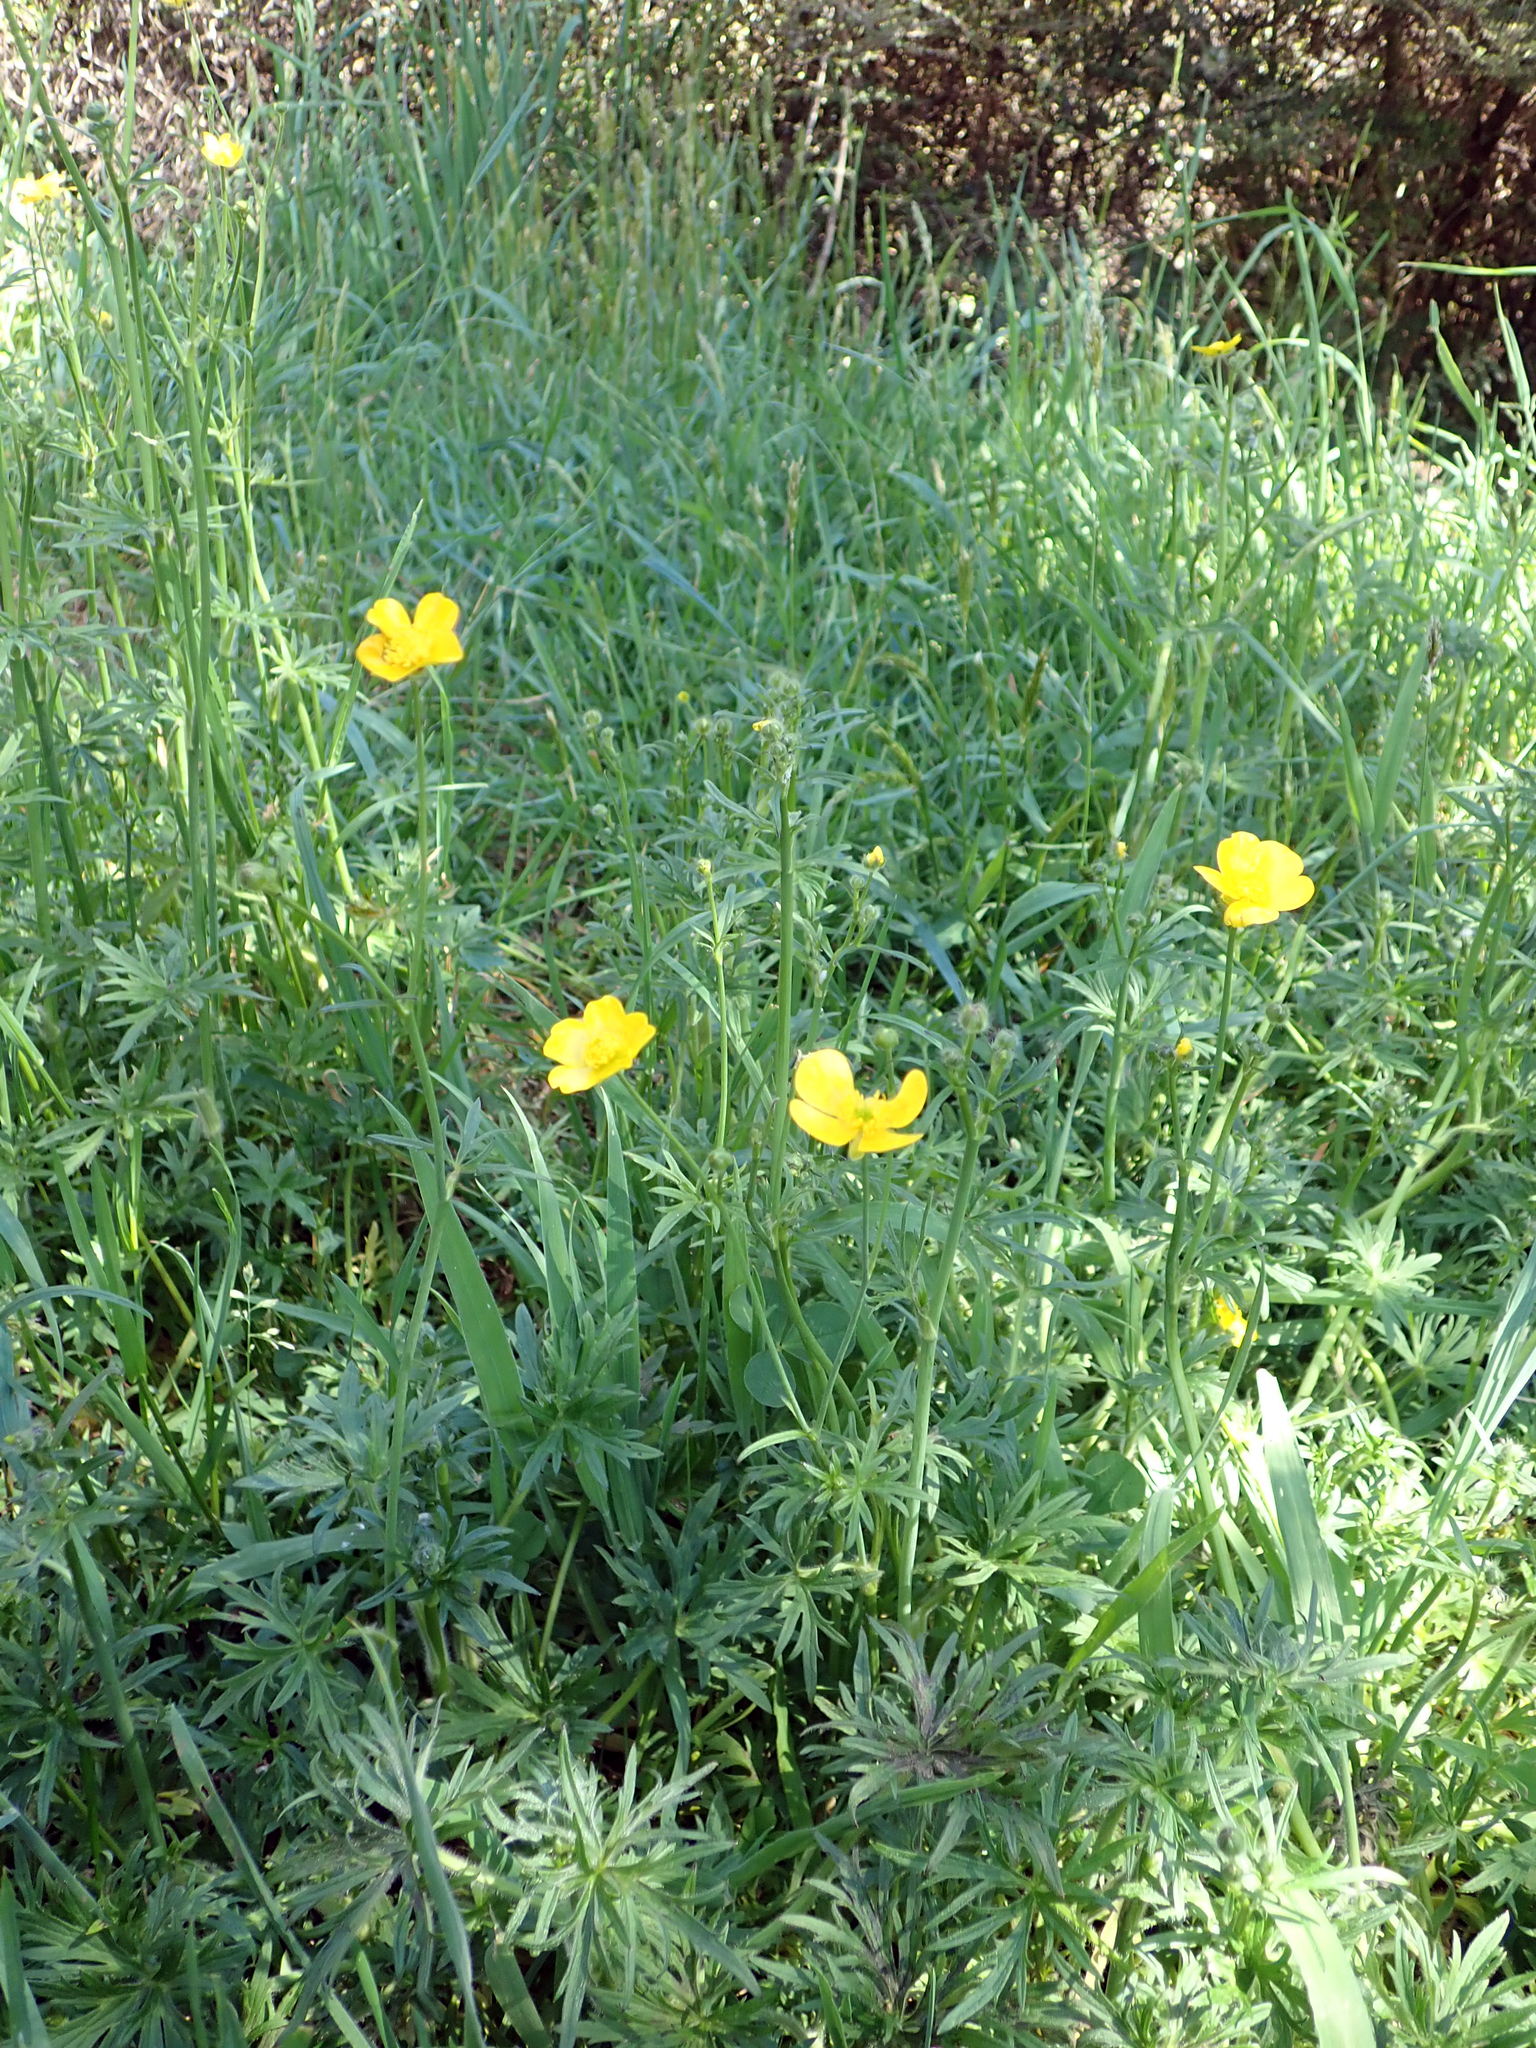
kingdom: Plantae
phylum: Tracheophyta
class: Magnoliopsida
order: Ranunculales
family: Ranunculaceae
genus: Ranunculus
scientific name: Ranunculus acris
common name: Meadow buttercup
